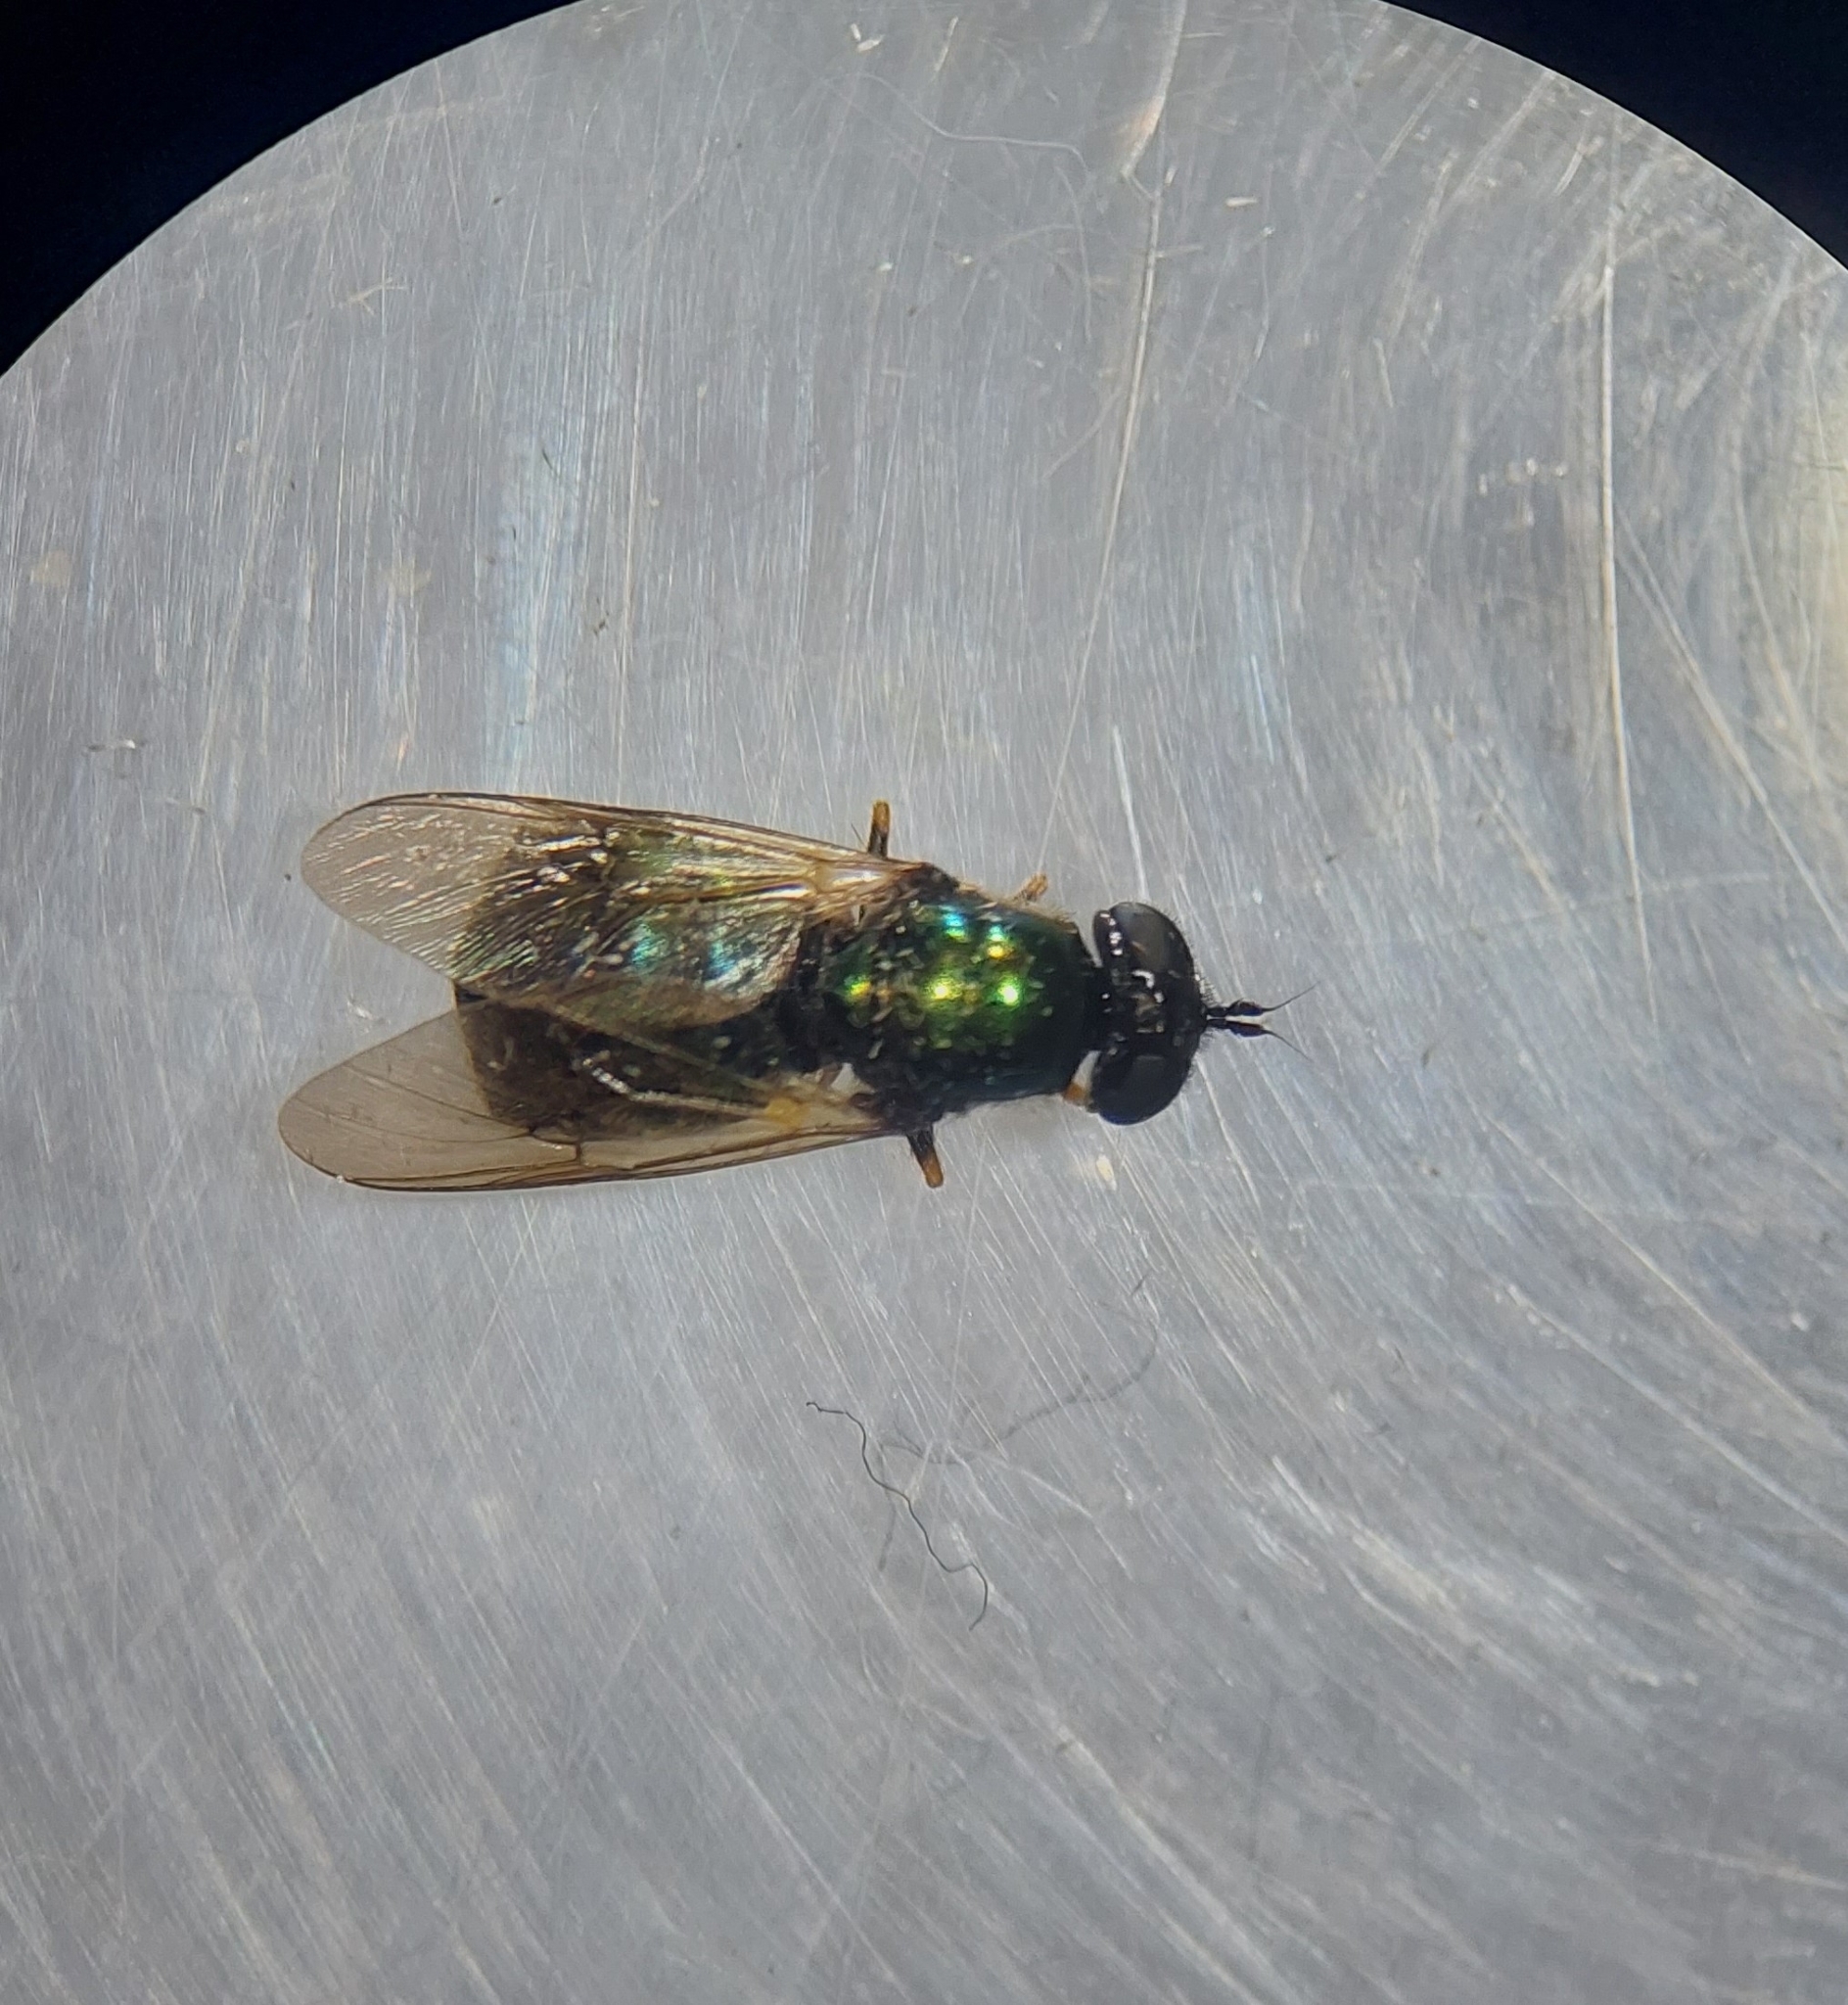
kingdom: Animalia
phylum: Arthropoda
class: Insecta
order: Diptera
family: Stratiomyidae
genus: Chloromyia
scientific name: Chloromyia formosa
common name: Soldier fly
